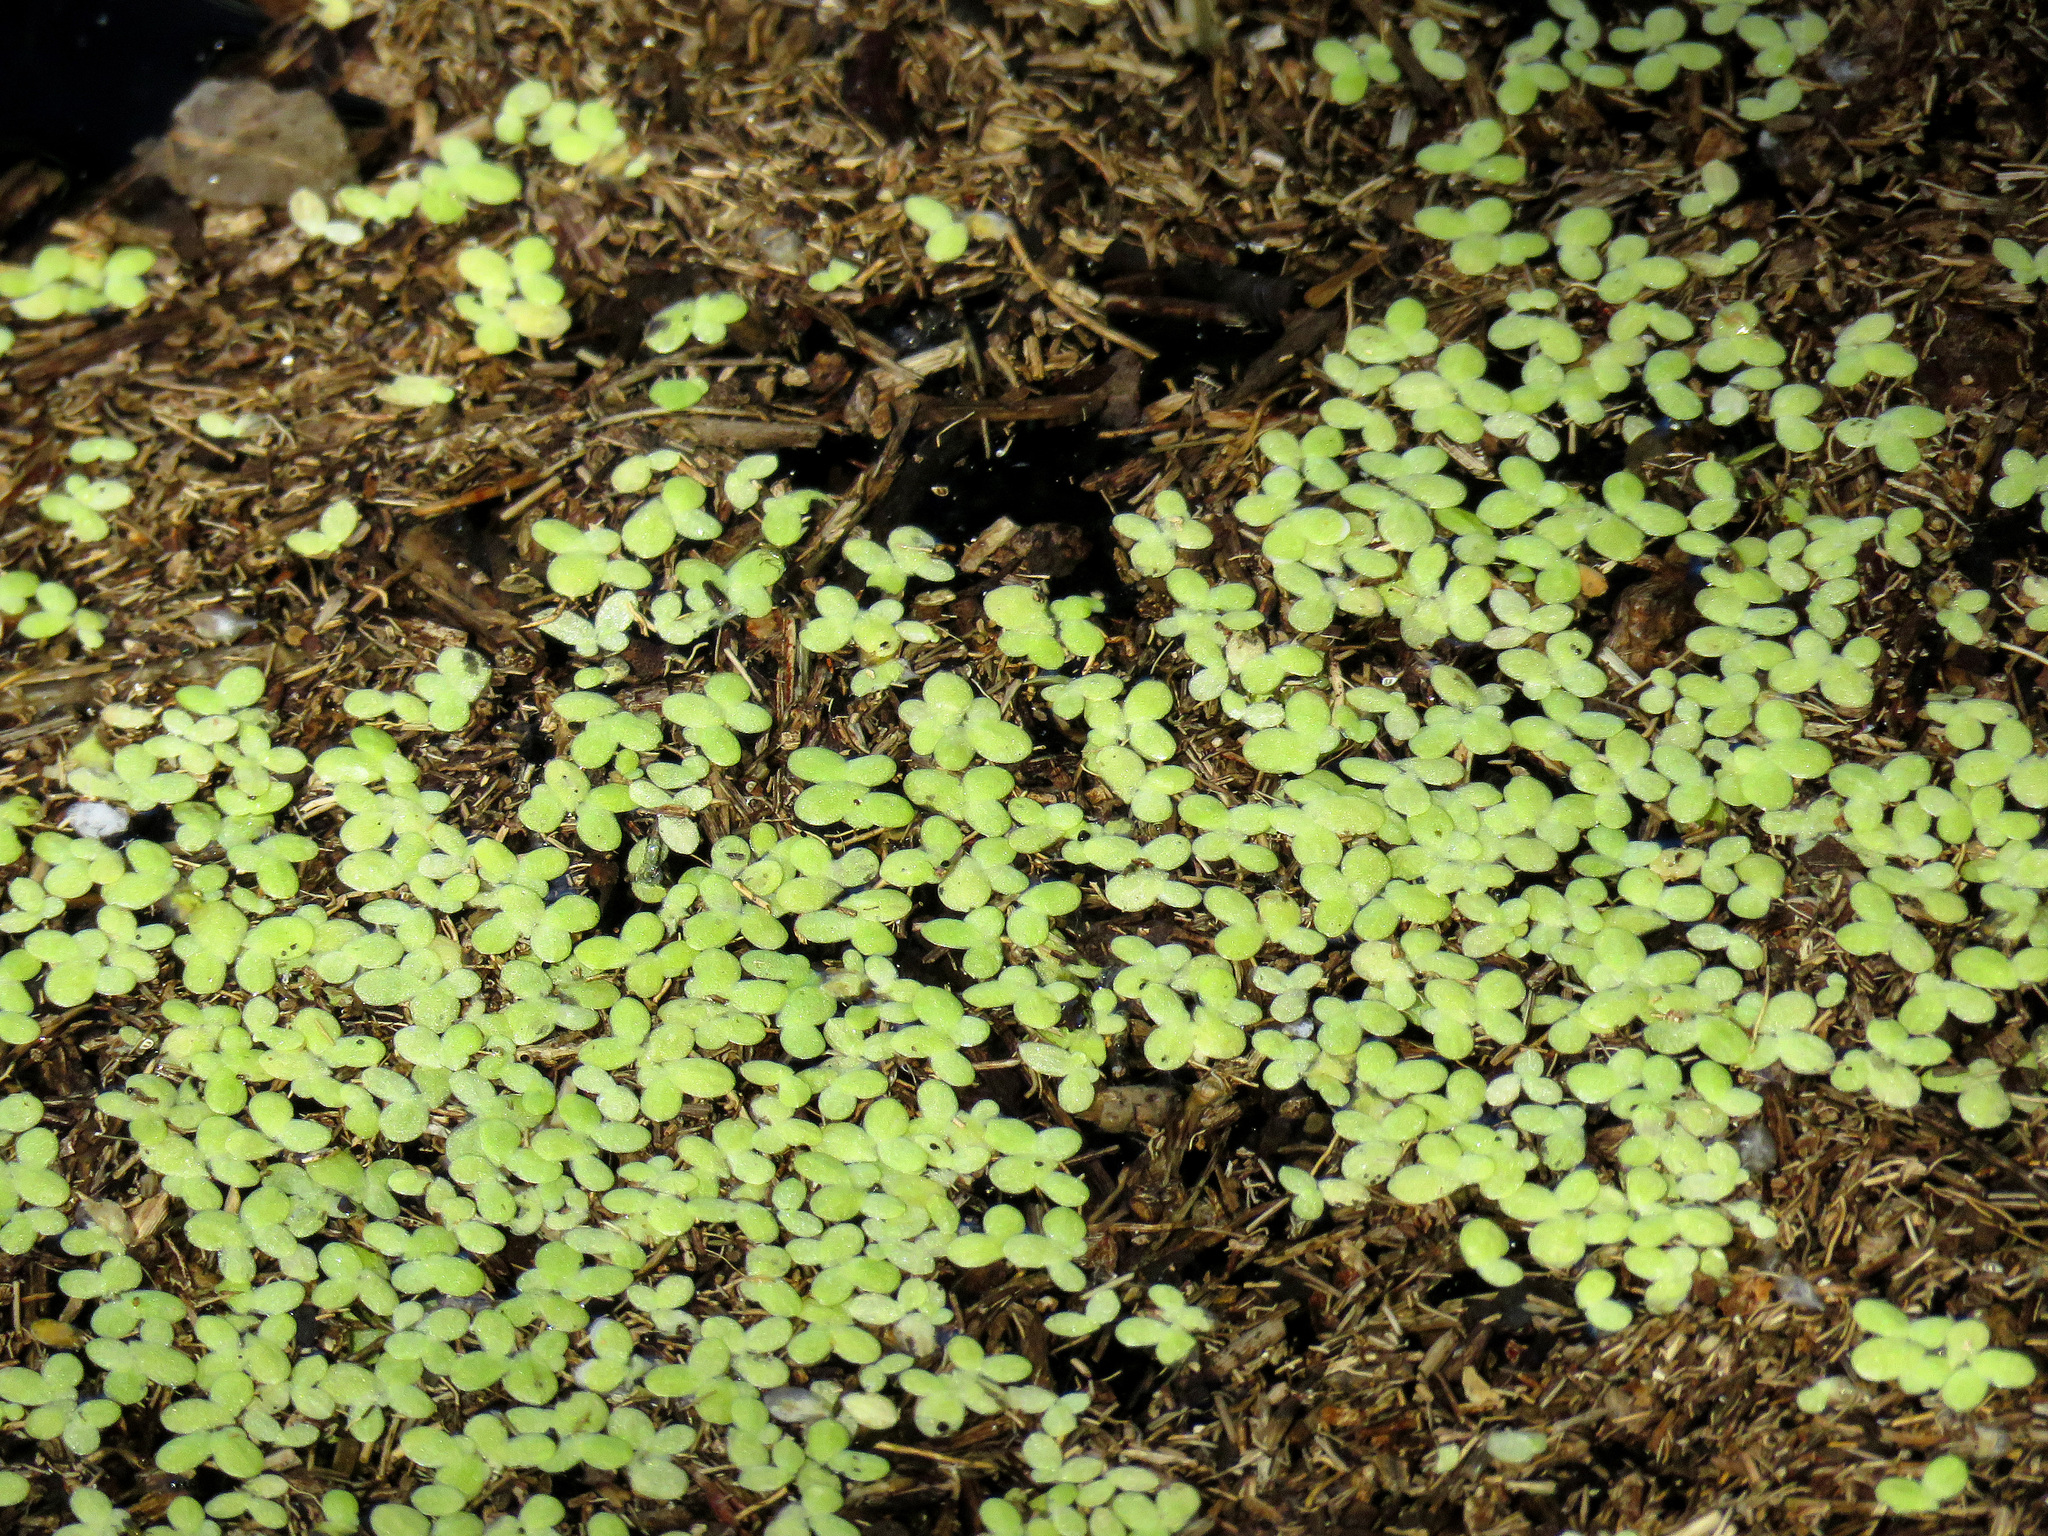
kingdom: Plantae
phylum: Tracheophyta
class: Liliopsida
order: Alismatales
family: Araceae
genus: Lemna
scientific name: Lemna minor
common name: Common duckweed
